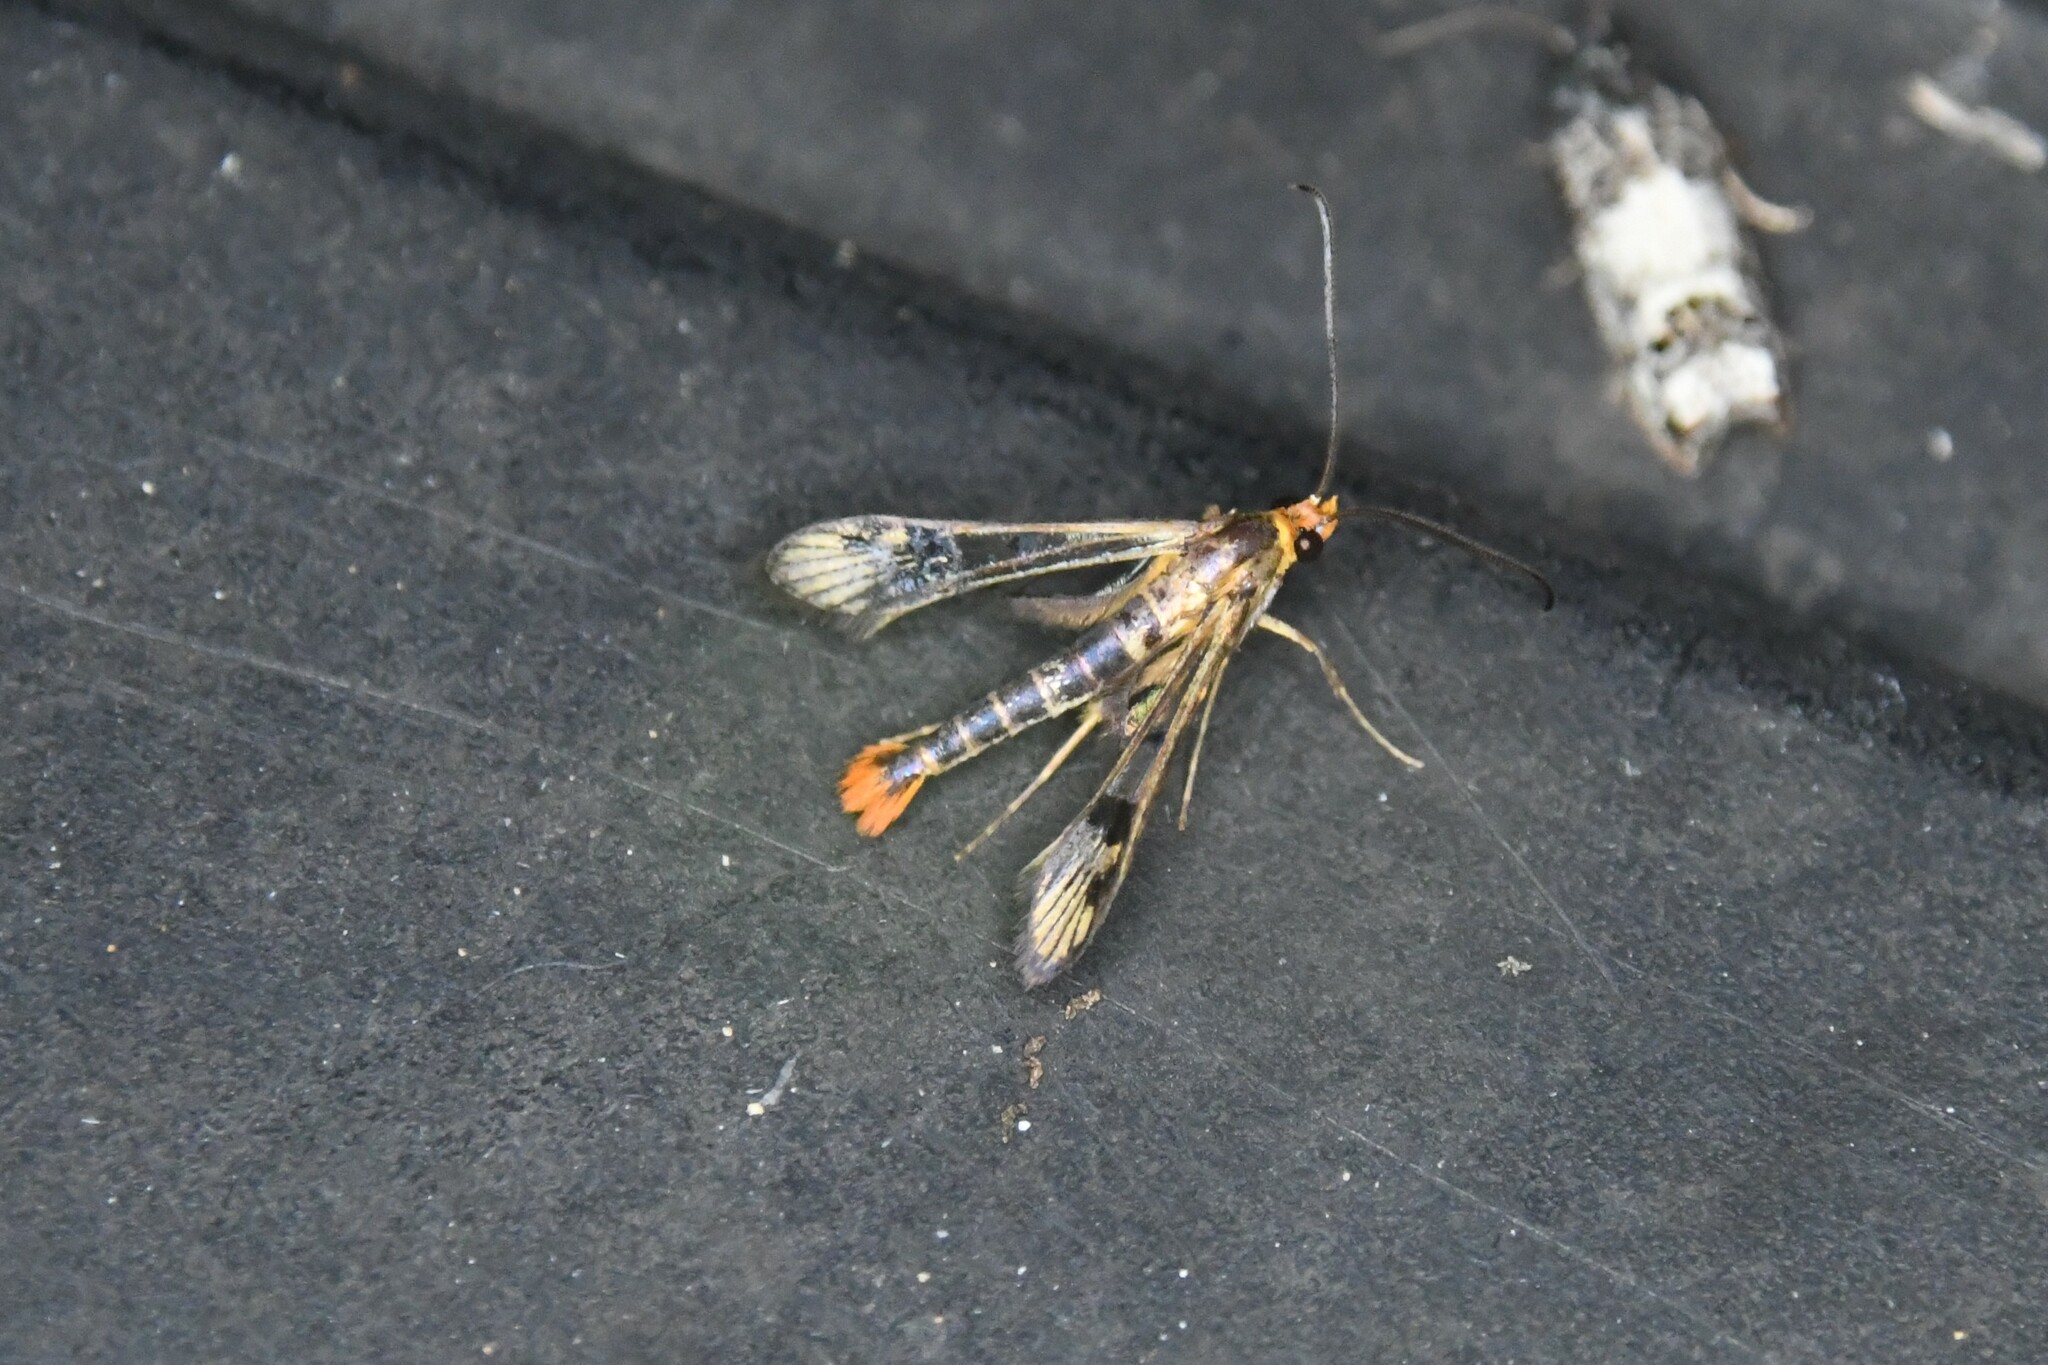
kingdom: Animalia
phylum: Arthropoda
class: Insecta
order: Lepidoptera
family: Sesiidae
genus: Synanthedon
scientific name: Synanthedon acerni
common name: Maple callus borer moth
